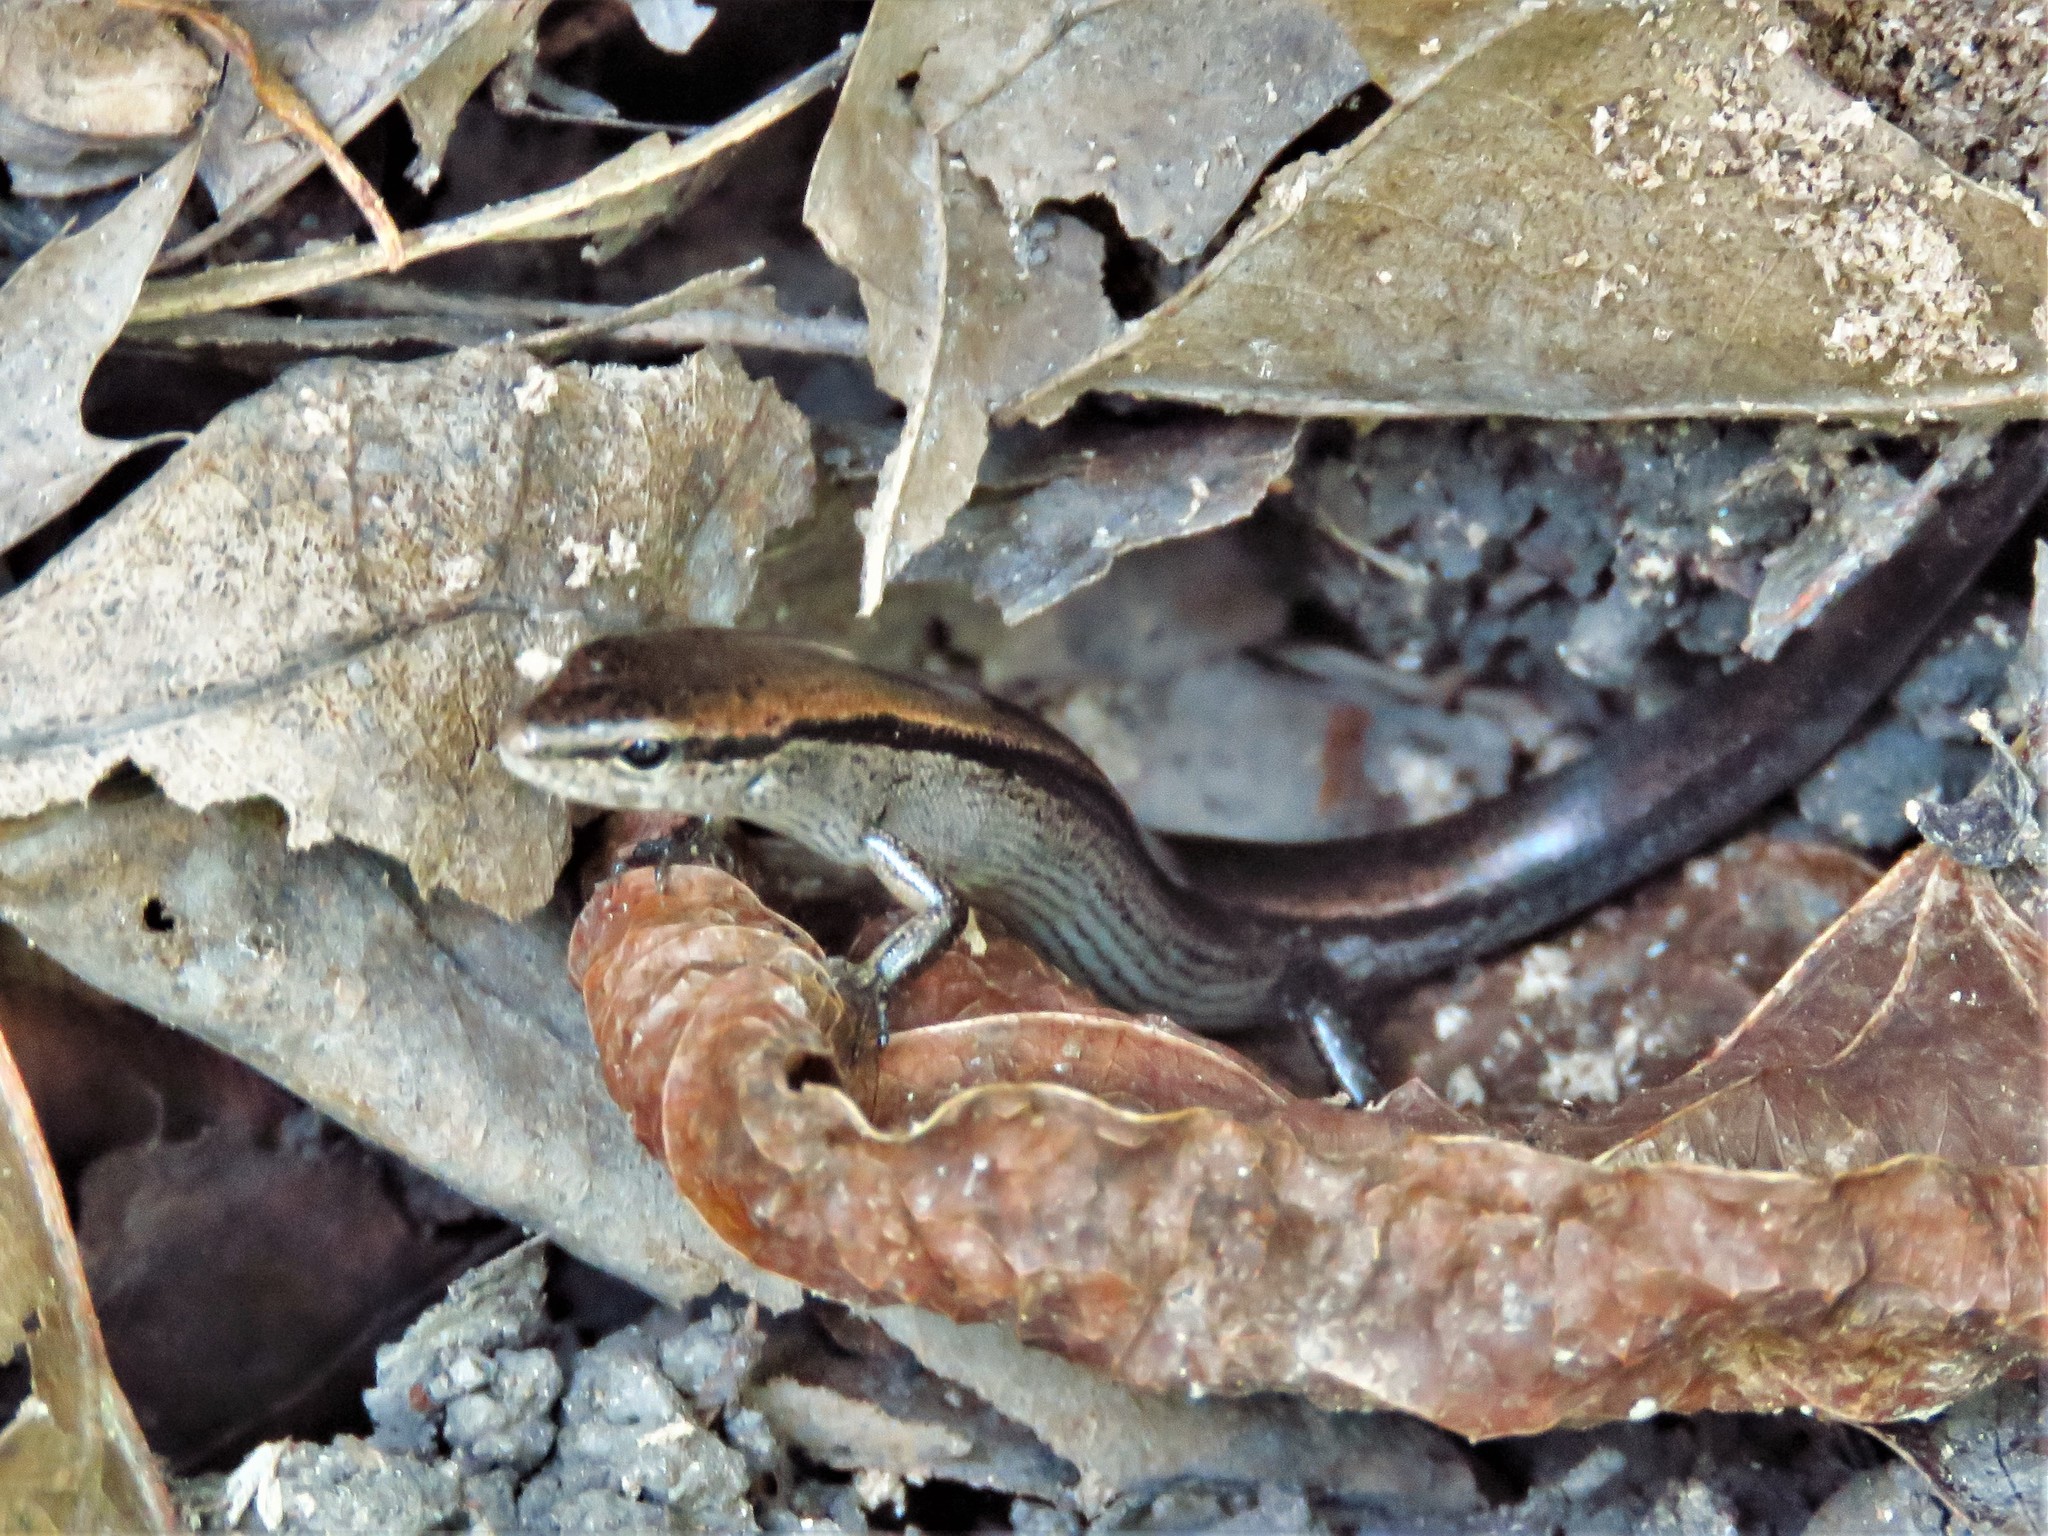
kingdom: Animalia
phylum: Chordata
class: Squamata
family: Scincidae
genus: Scincella
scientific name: Scincella lateralis
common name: Ground skink
